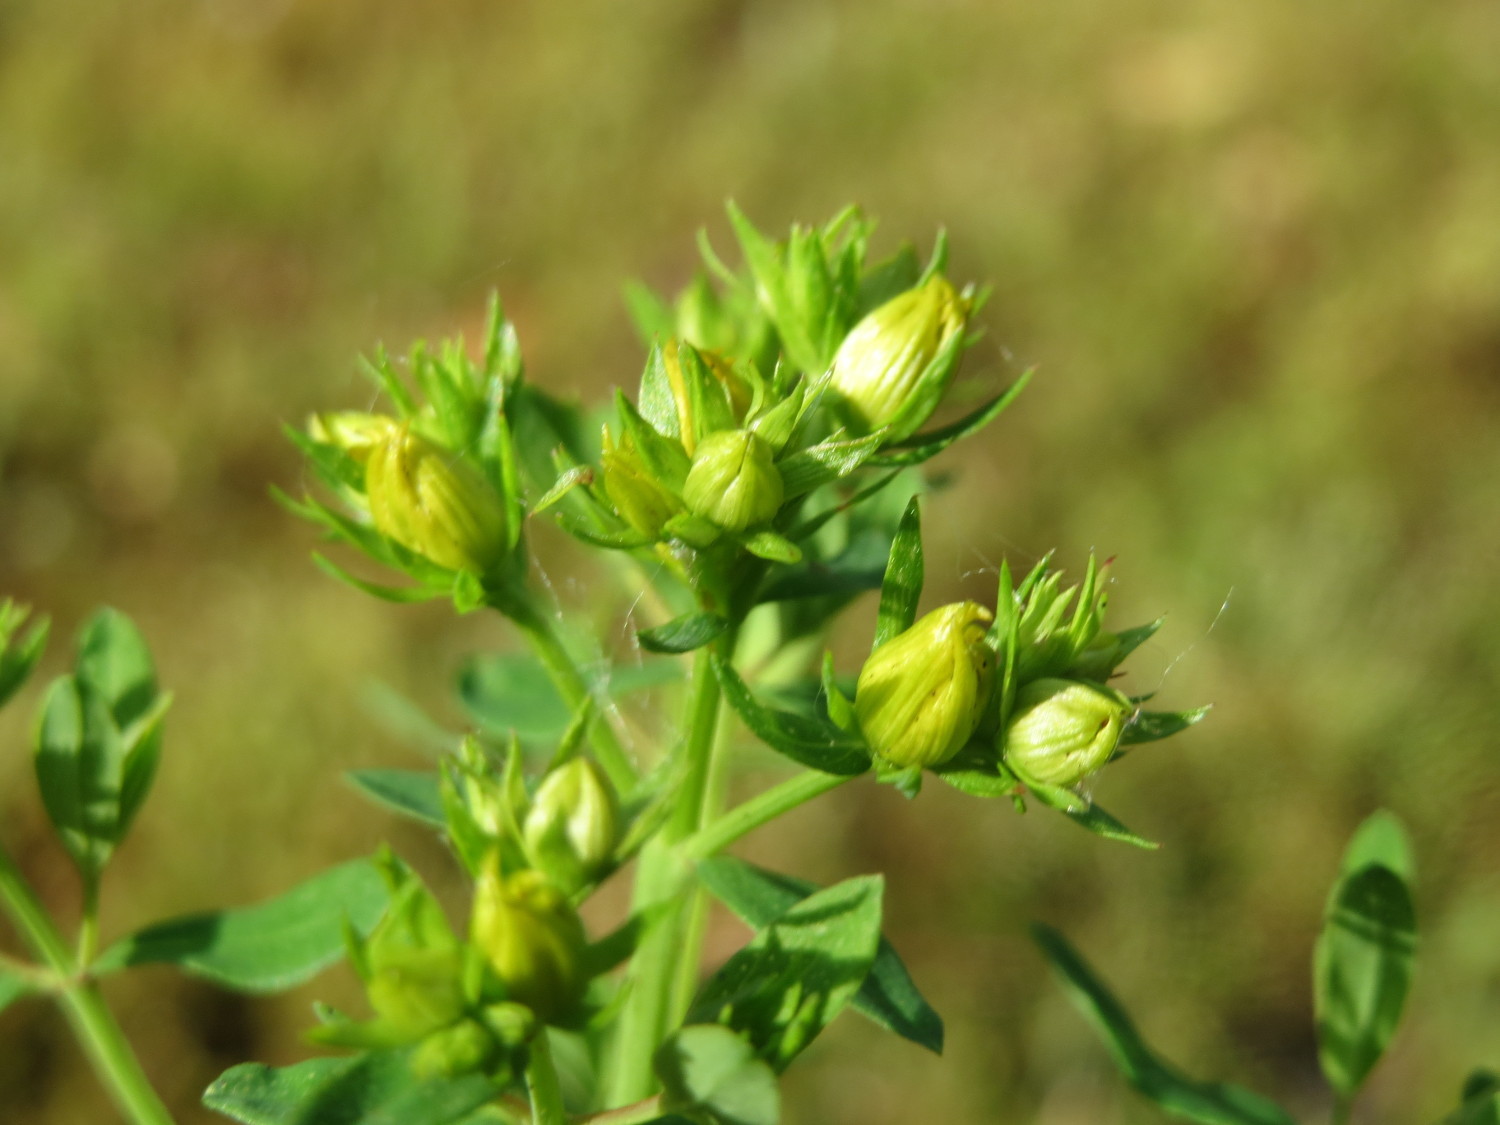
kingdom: Plantae
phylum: Tracheophyta
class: Magnoliopsida
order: Malpighiales
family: Hypericaceae
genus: Hypericum
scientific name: Hypericum perforatum
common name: Common st. johnswort
